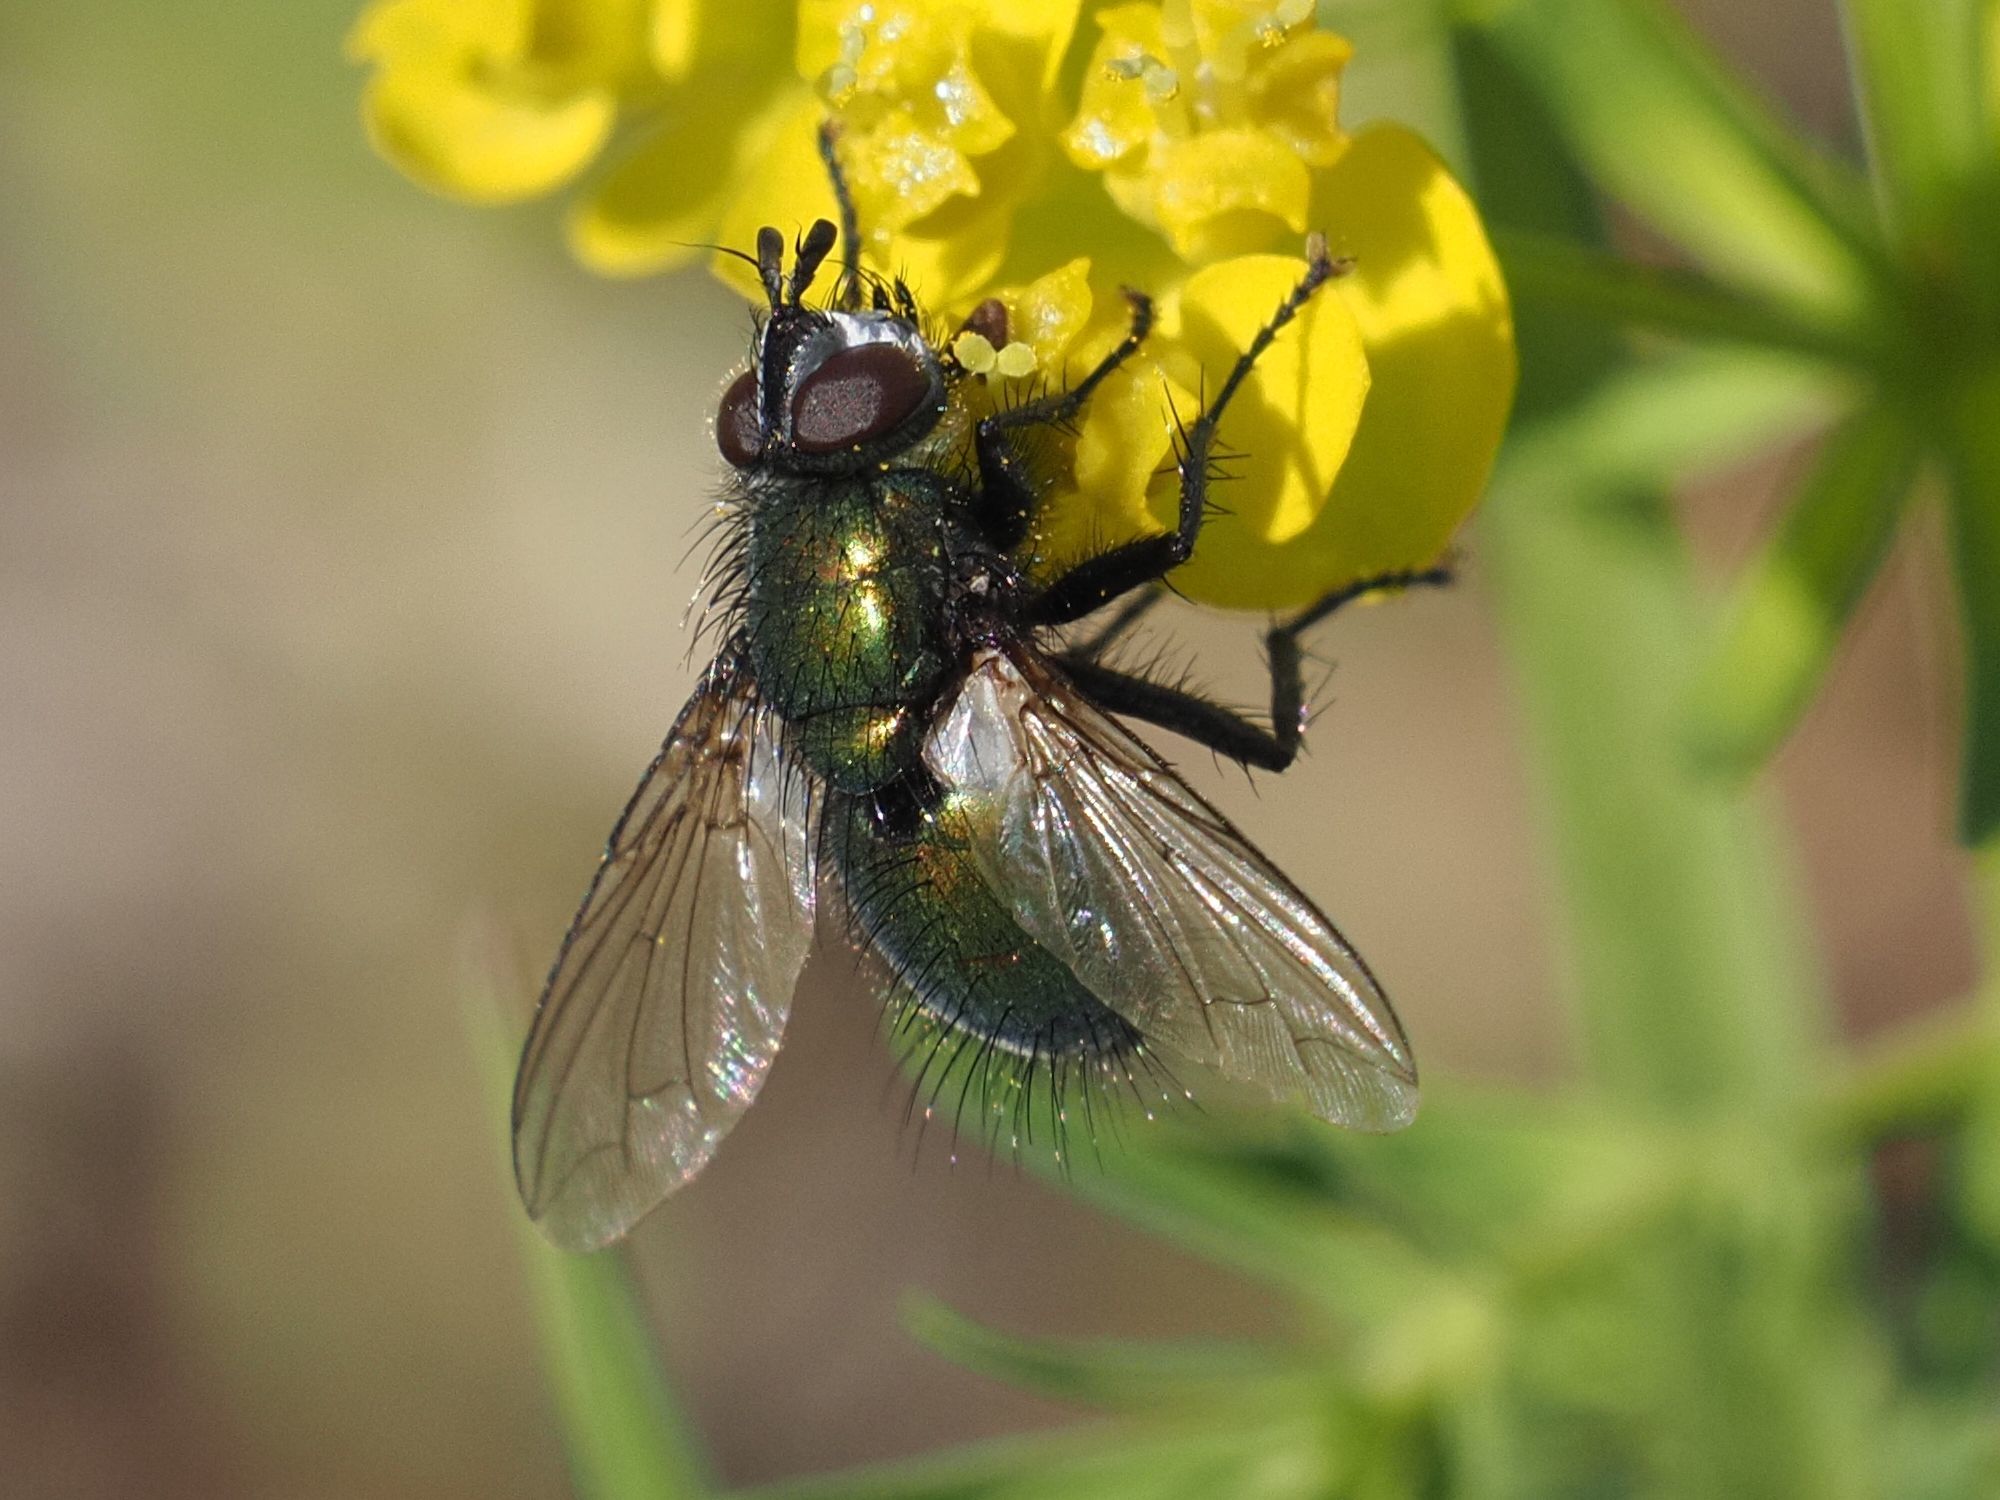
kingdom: Animalia
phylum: Arthropoda
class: Insecta
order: Diptera
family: Tachinidae
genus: Gymnocheta
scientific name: Gymnocheta viridis
